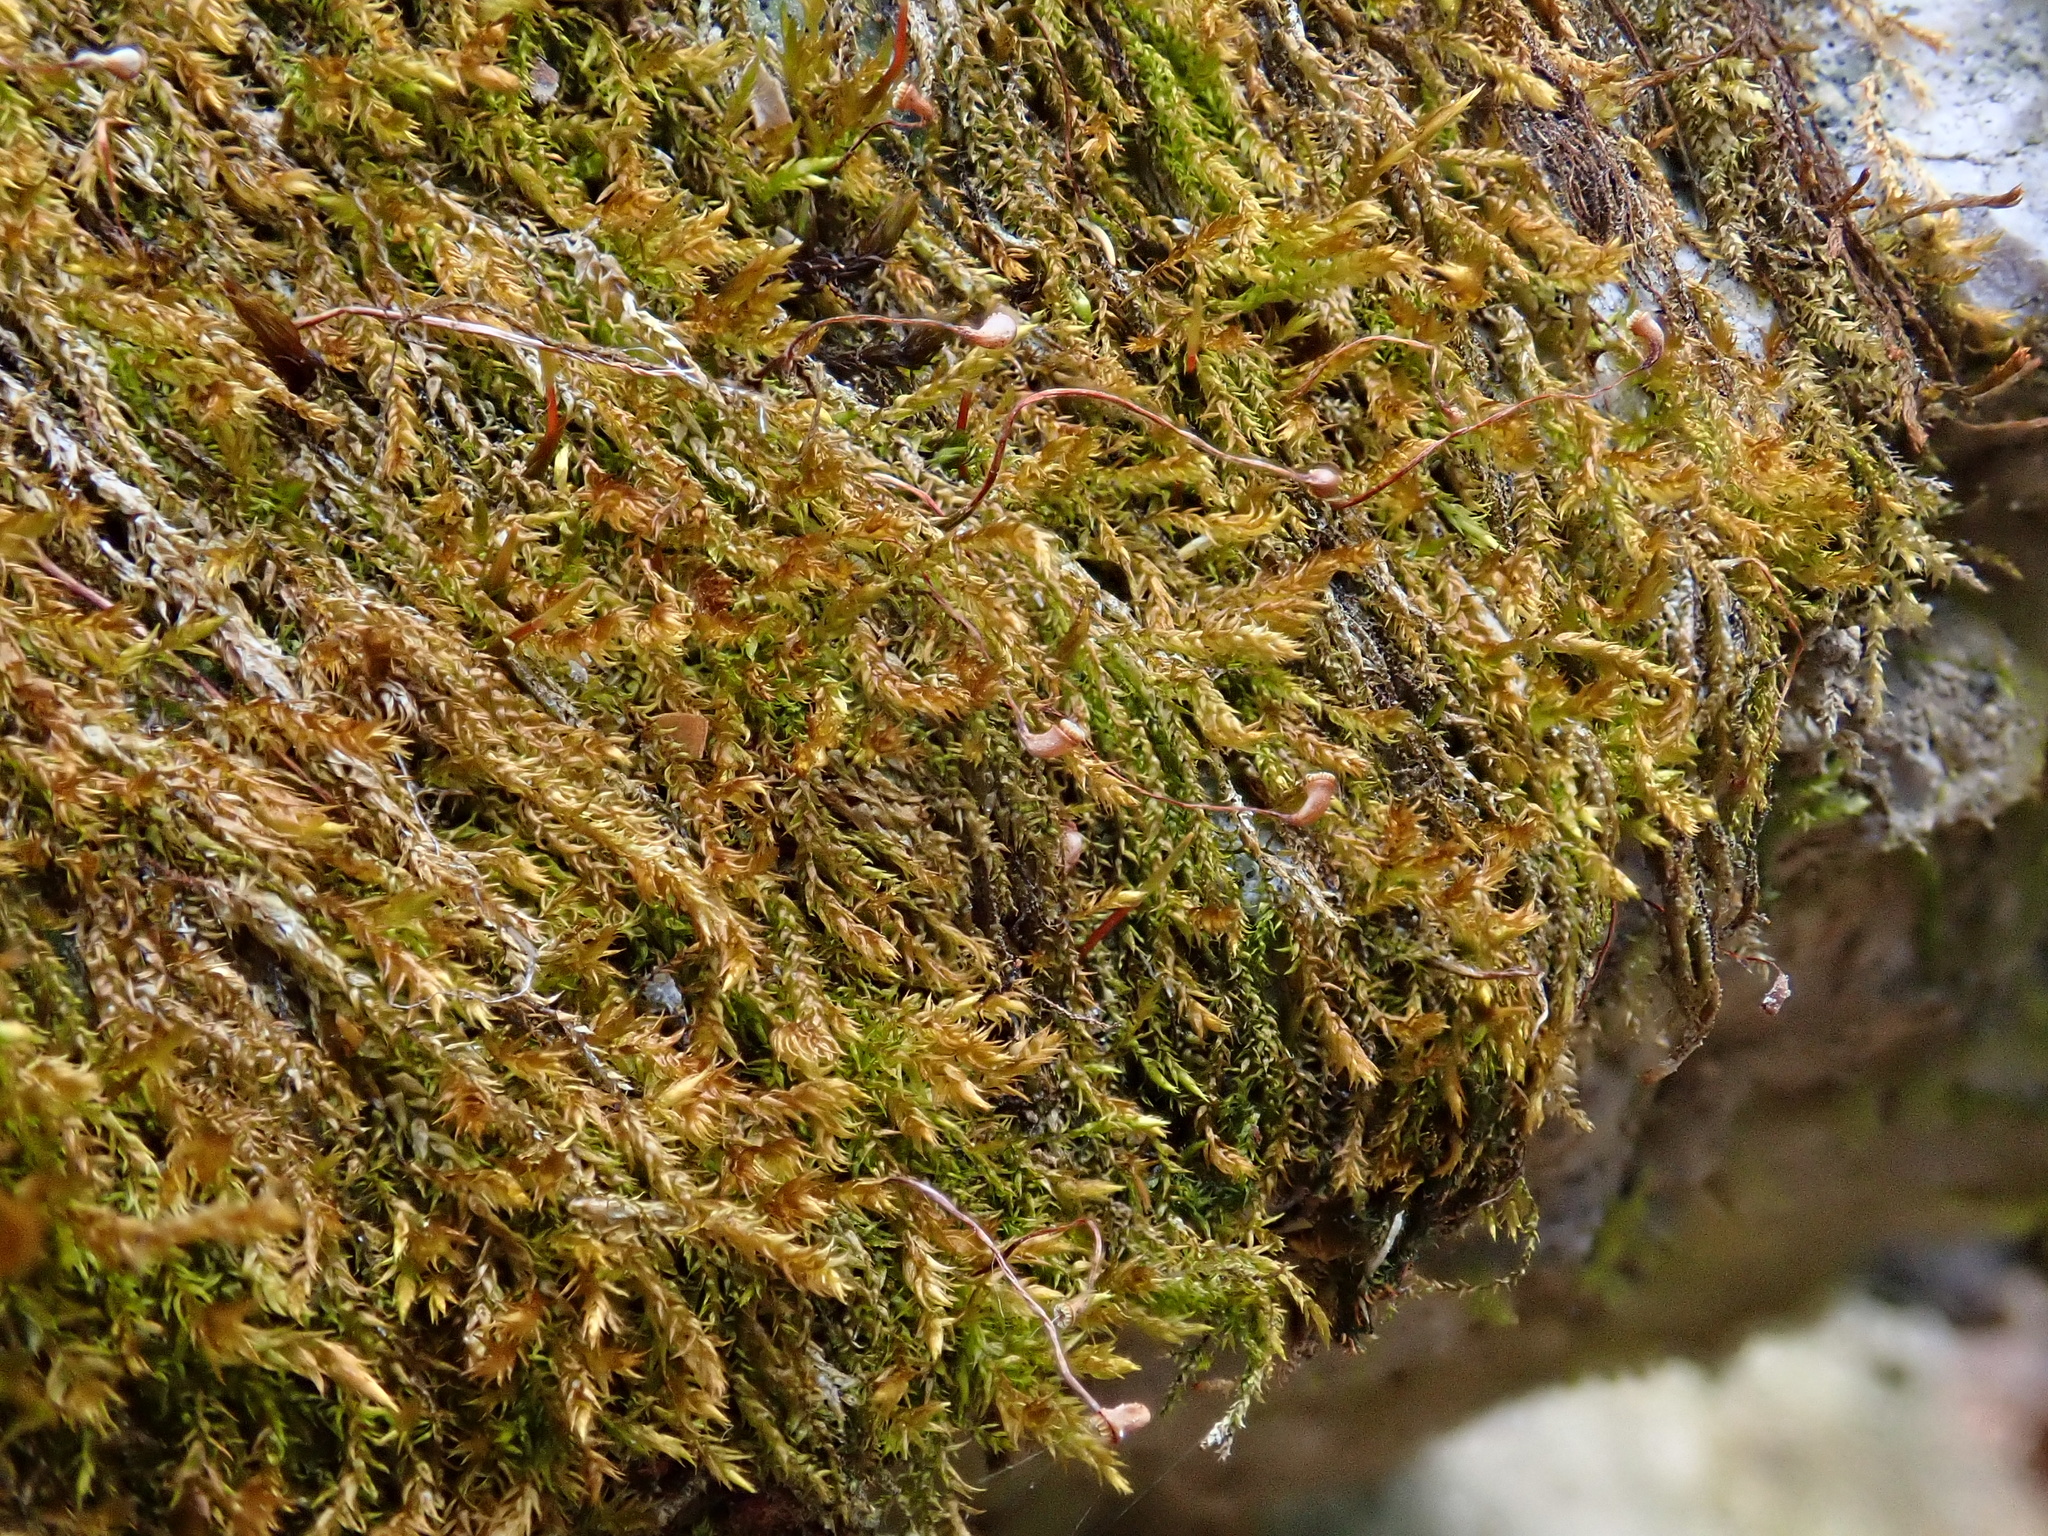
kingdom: Plantae
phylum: Bryophyta
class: Bryopsida
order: Hypnales
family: Amblystegiaceae
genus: Hygrohypnum
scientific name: Hygrohypnum luridum
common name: Drab brook moss
